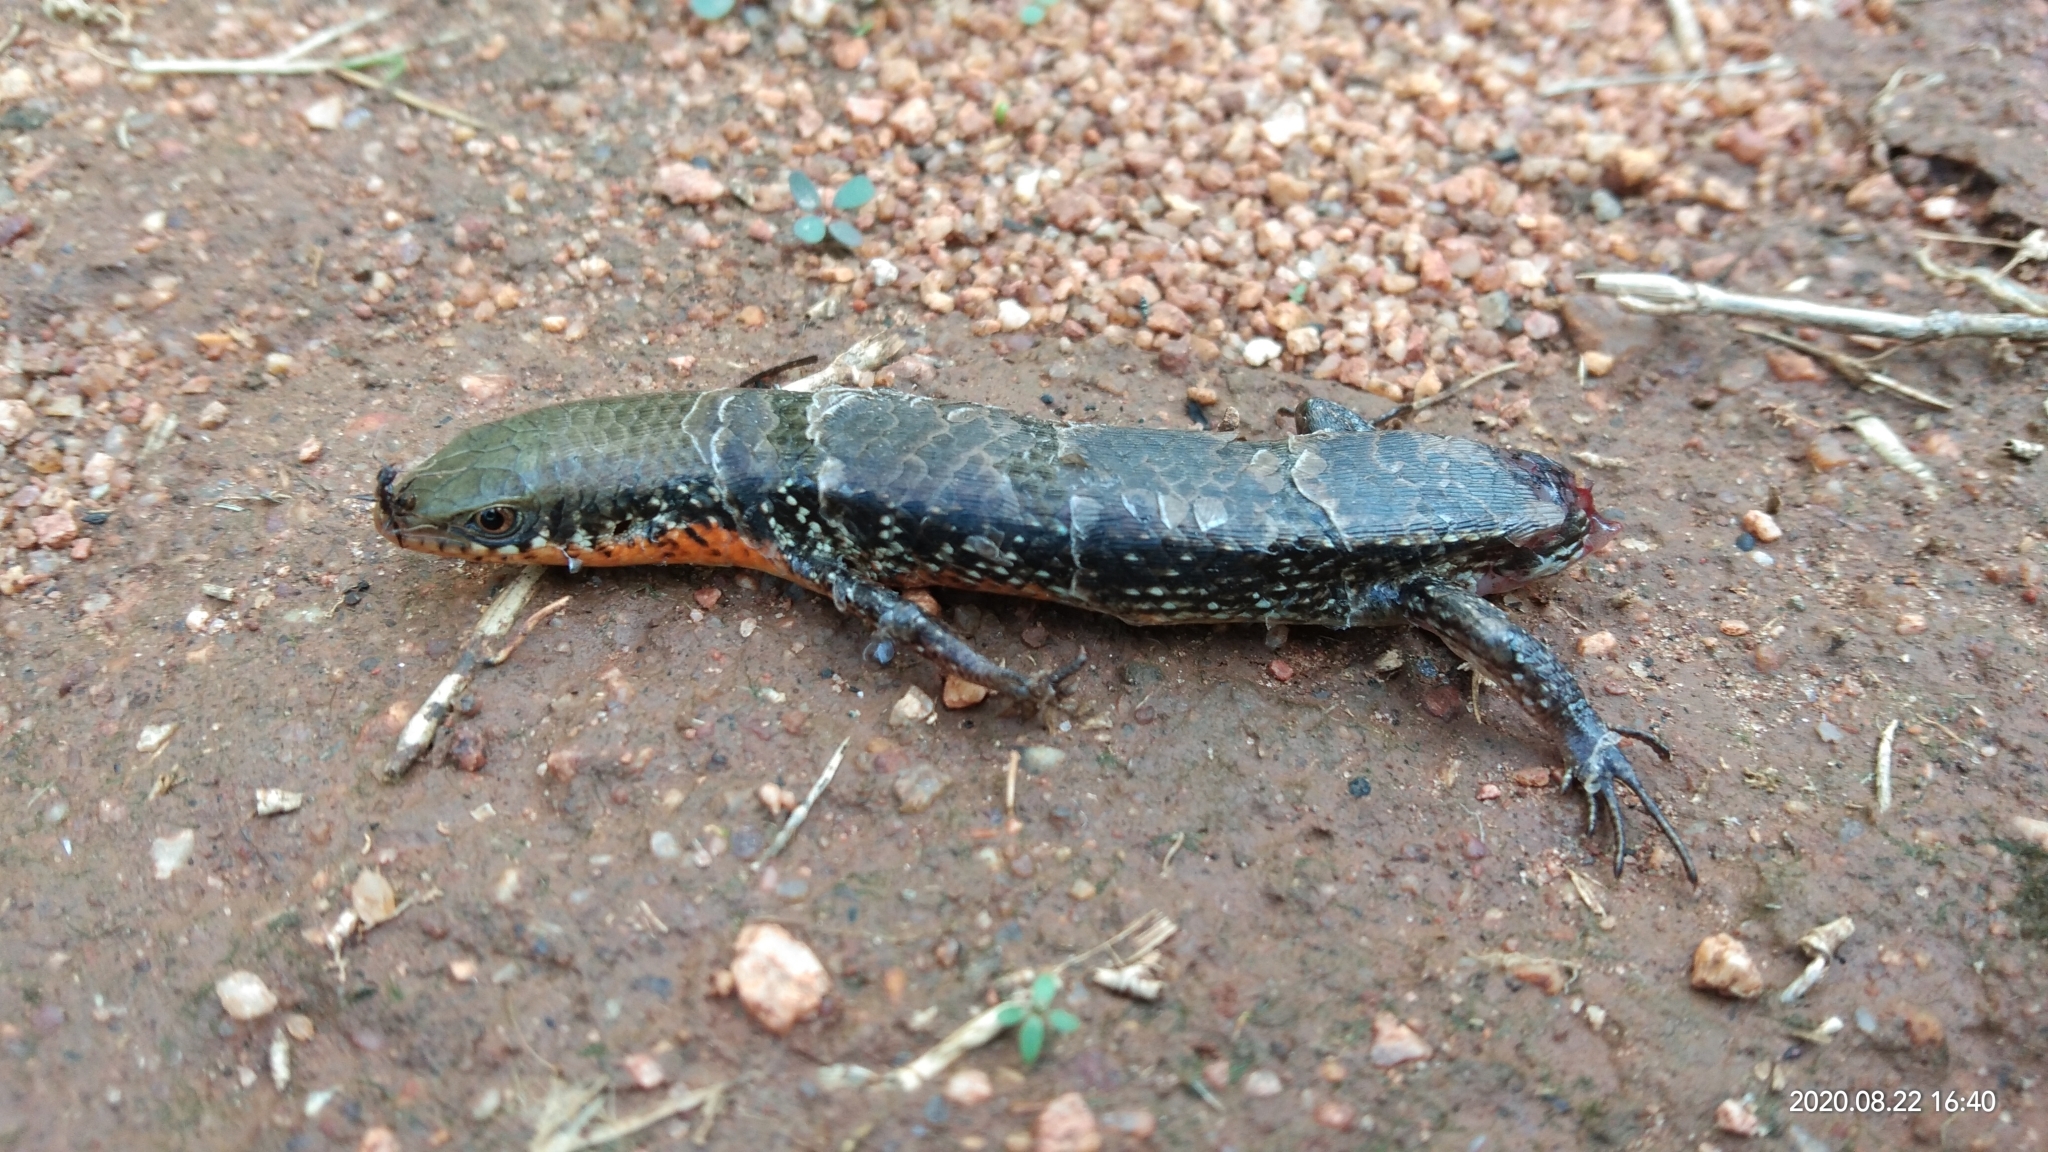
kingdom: Animalia
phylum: Chordata
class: Squamata
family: Scincidae
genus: Eutropis
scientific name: Eutropis macularia
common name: Bronze mabuya
